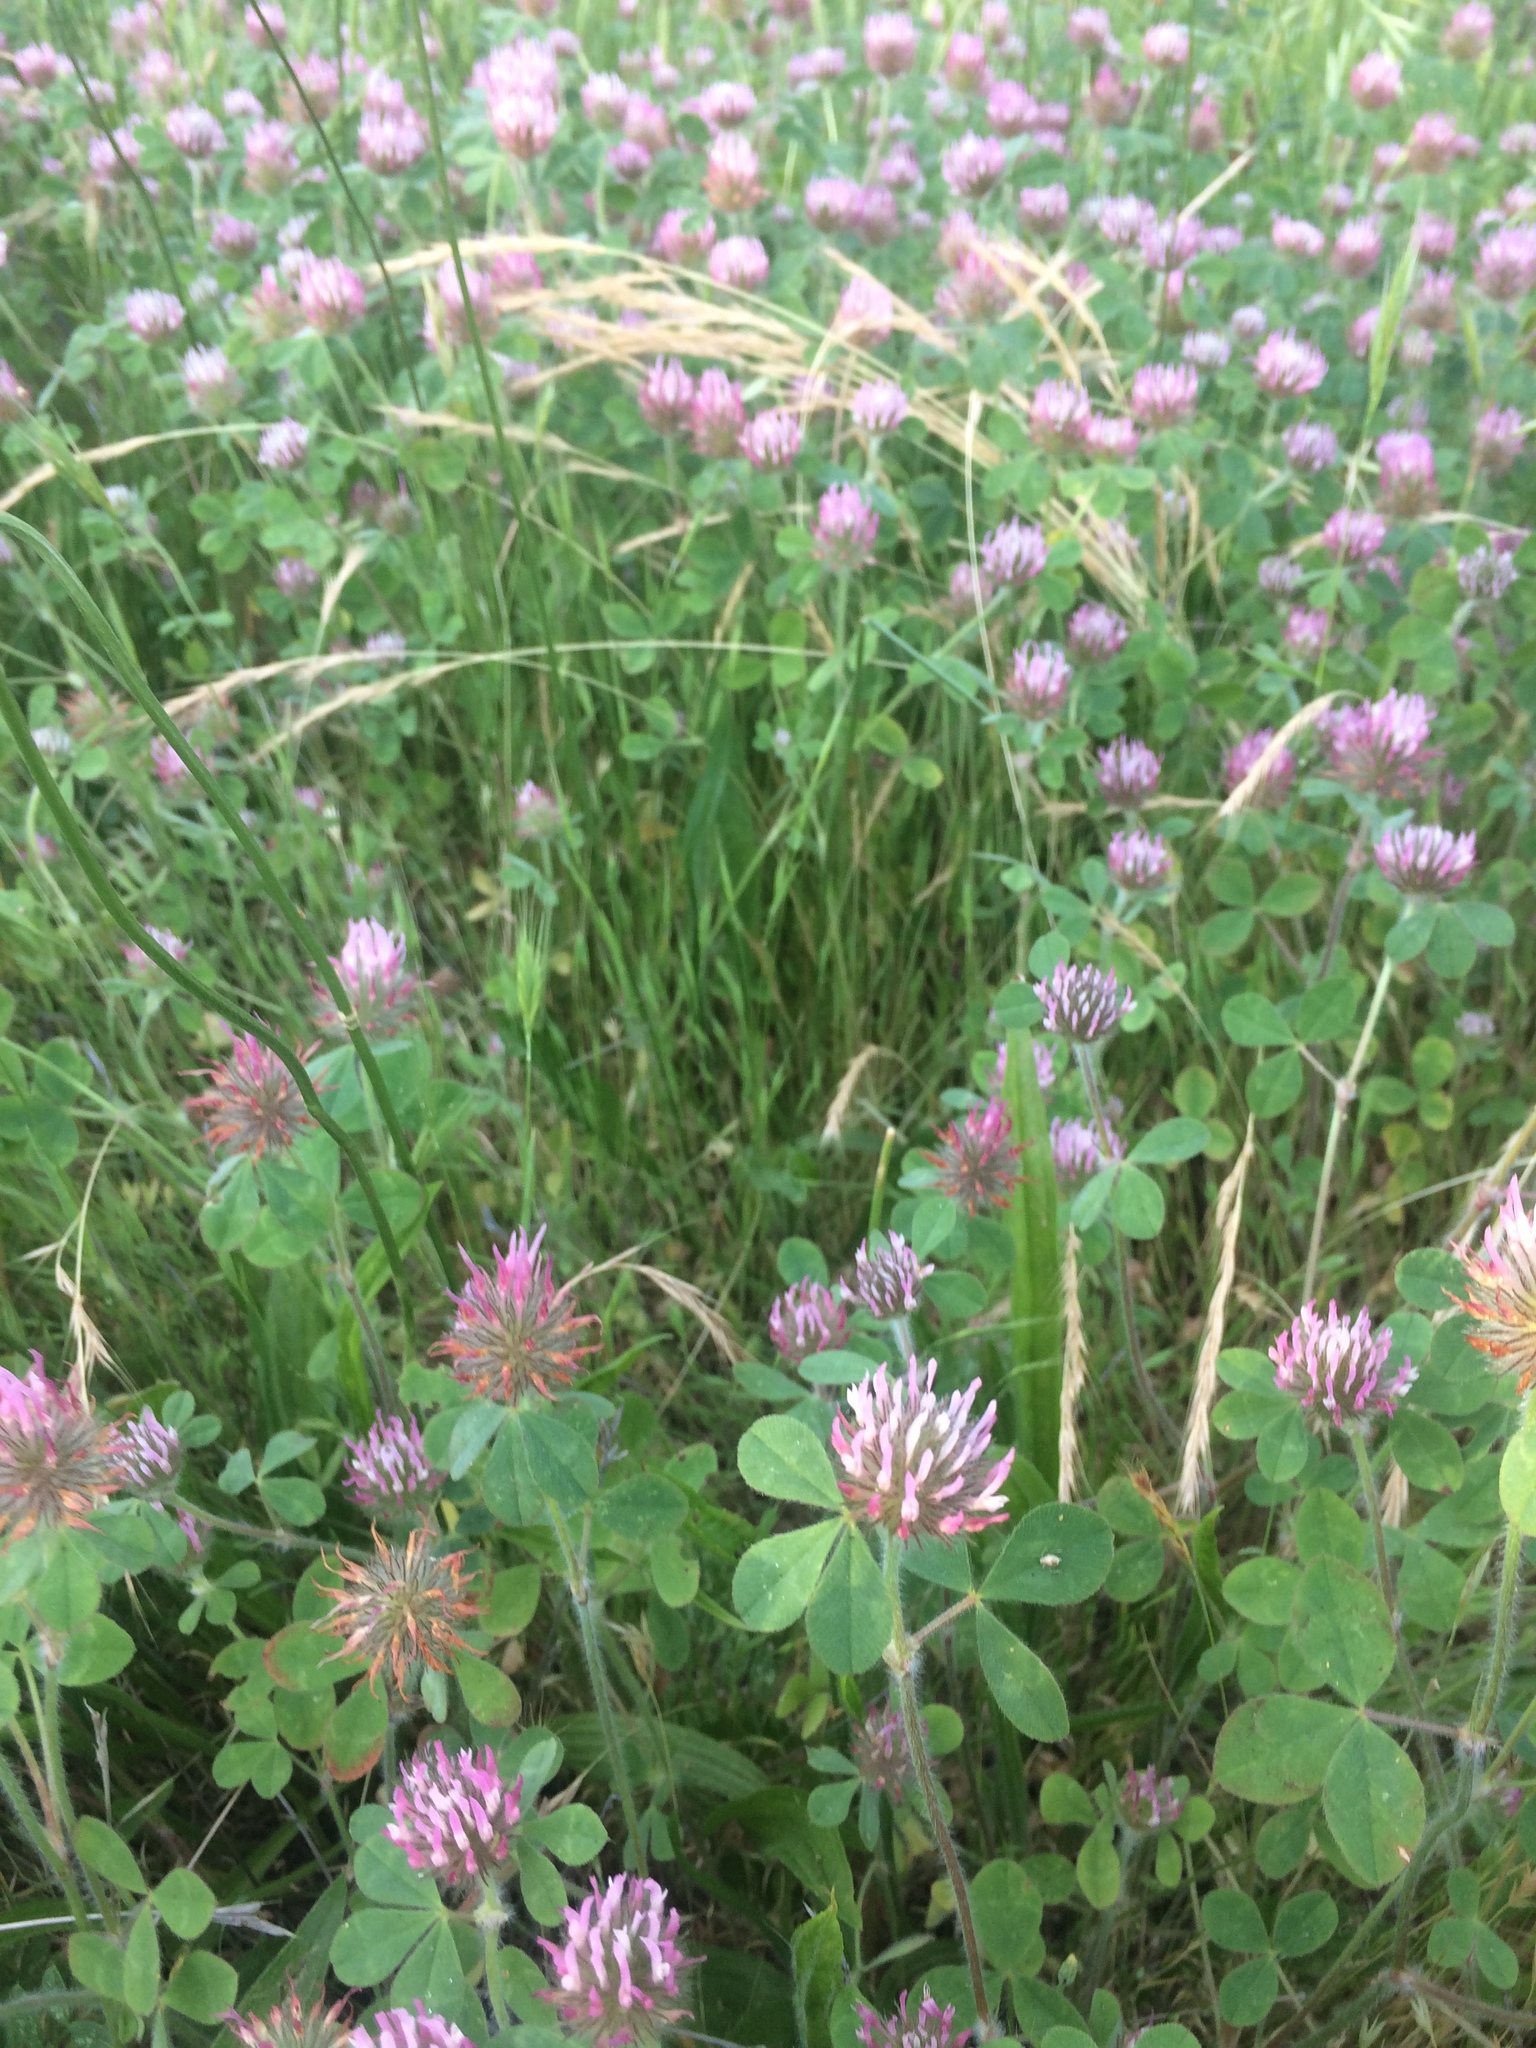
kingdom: Plantae
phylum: Tracheophyta
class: Magnoliopsida
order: Fabales
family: Fabaceae
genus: Trifolium
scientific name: Trifolium hirtum
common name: Rose clover
